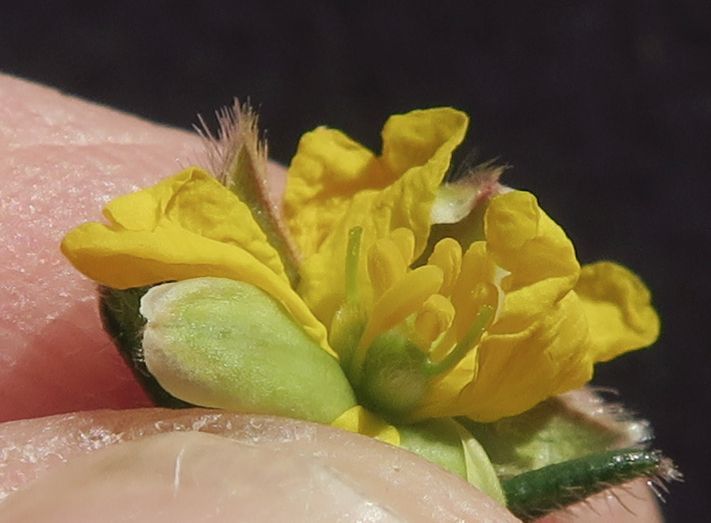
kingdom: Plantae
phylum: Tracheophyta
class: Magnoliopsida
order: Dilleniales
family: Dilleniaceae
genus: Hibbertia
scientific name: Hibbertia dispar
